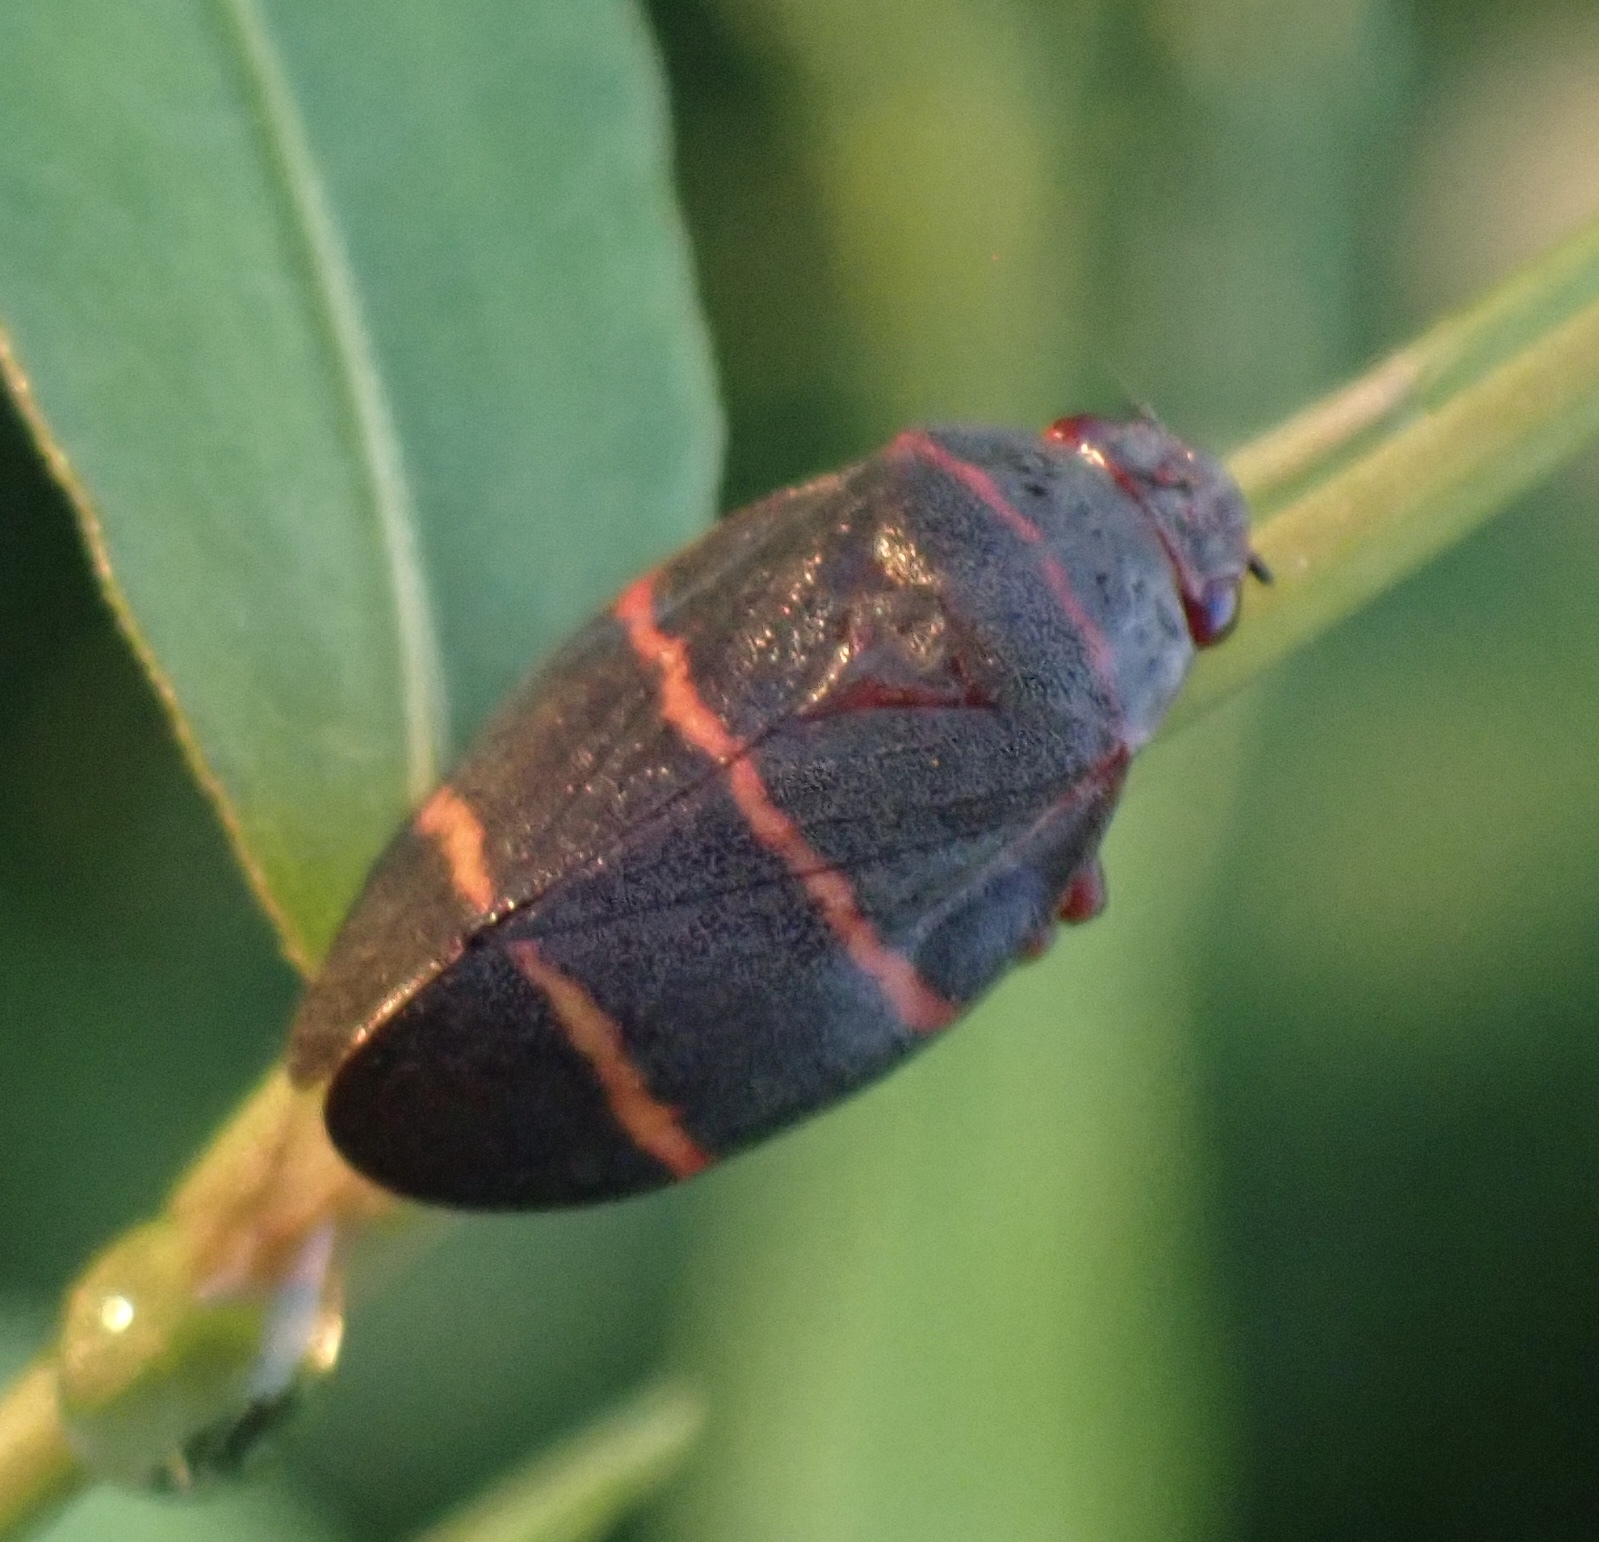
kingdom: Animalia
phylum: Arthropoda
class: Insecta
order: Hemiptera
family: Cercopidae
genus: Prosapia
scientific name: Prosapia bicincta
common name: Twolined spittlebug
